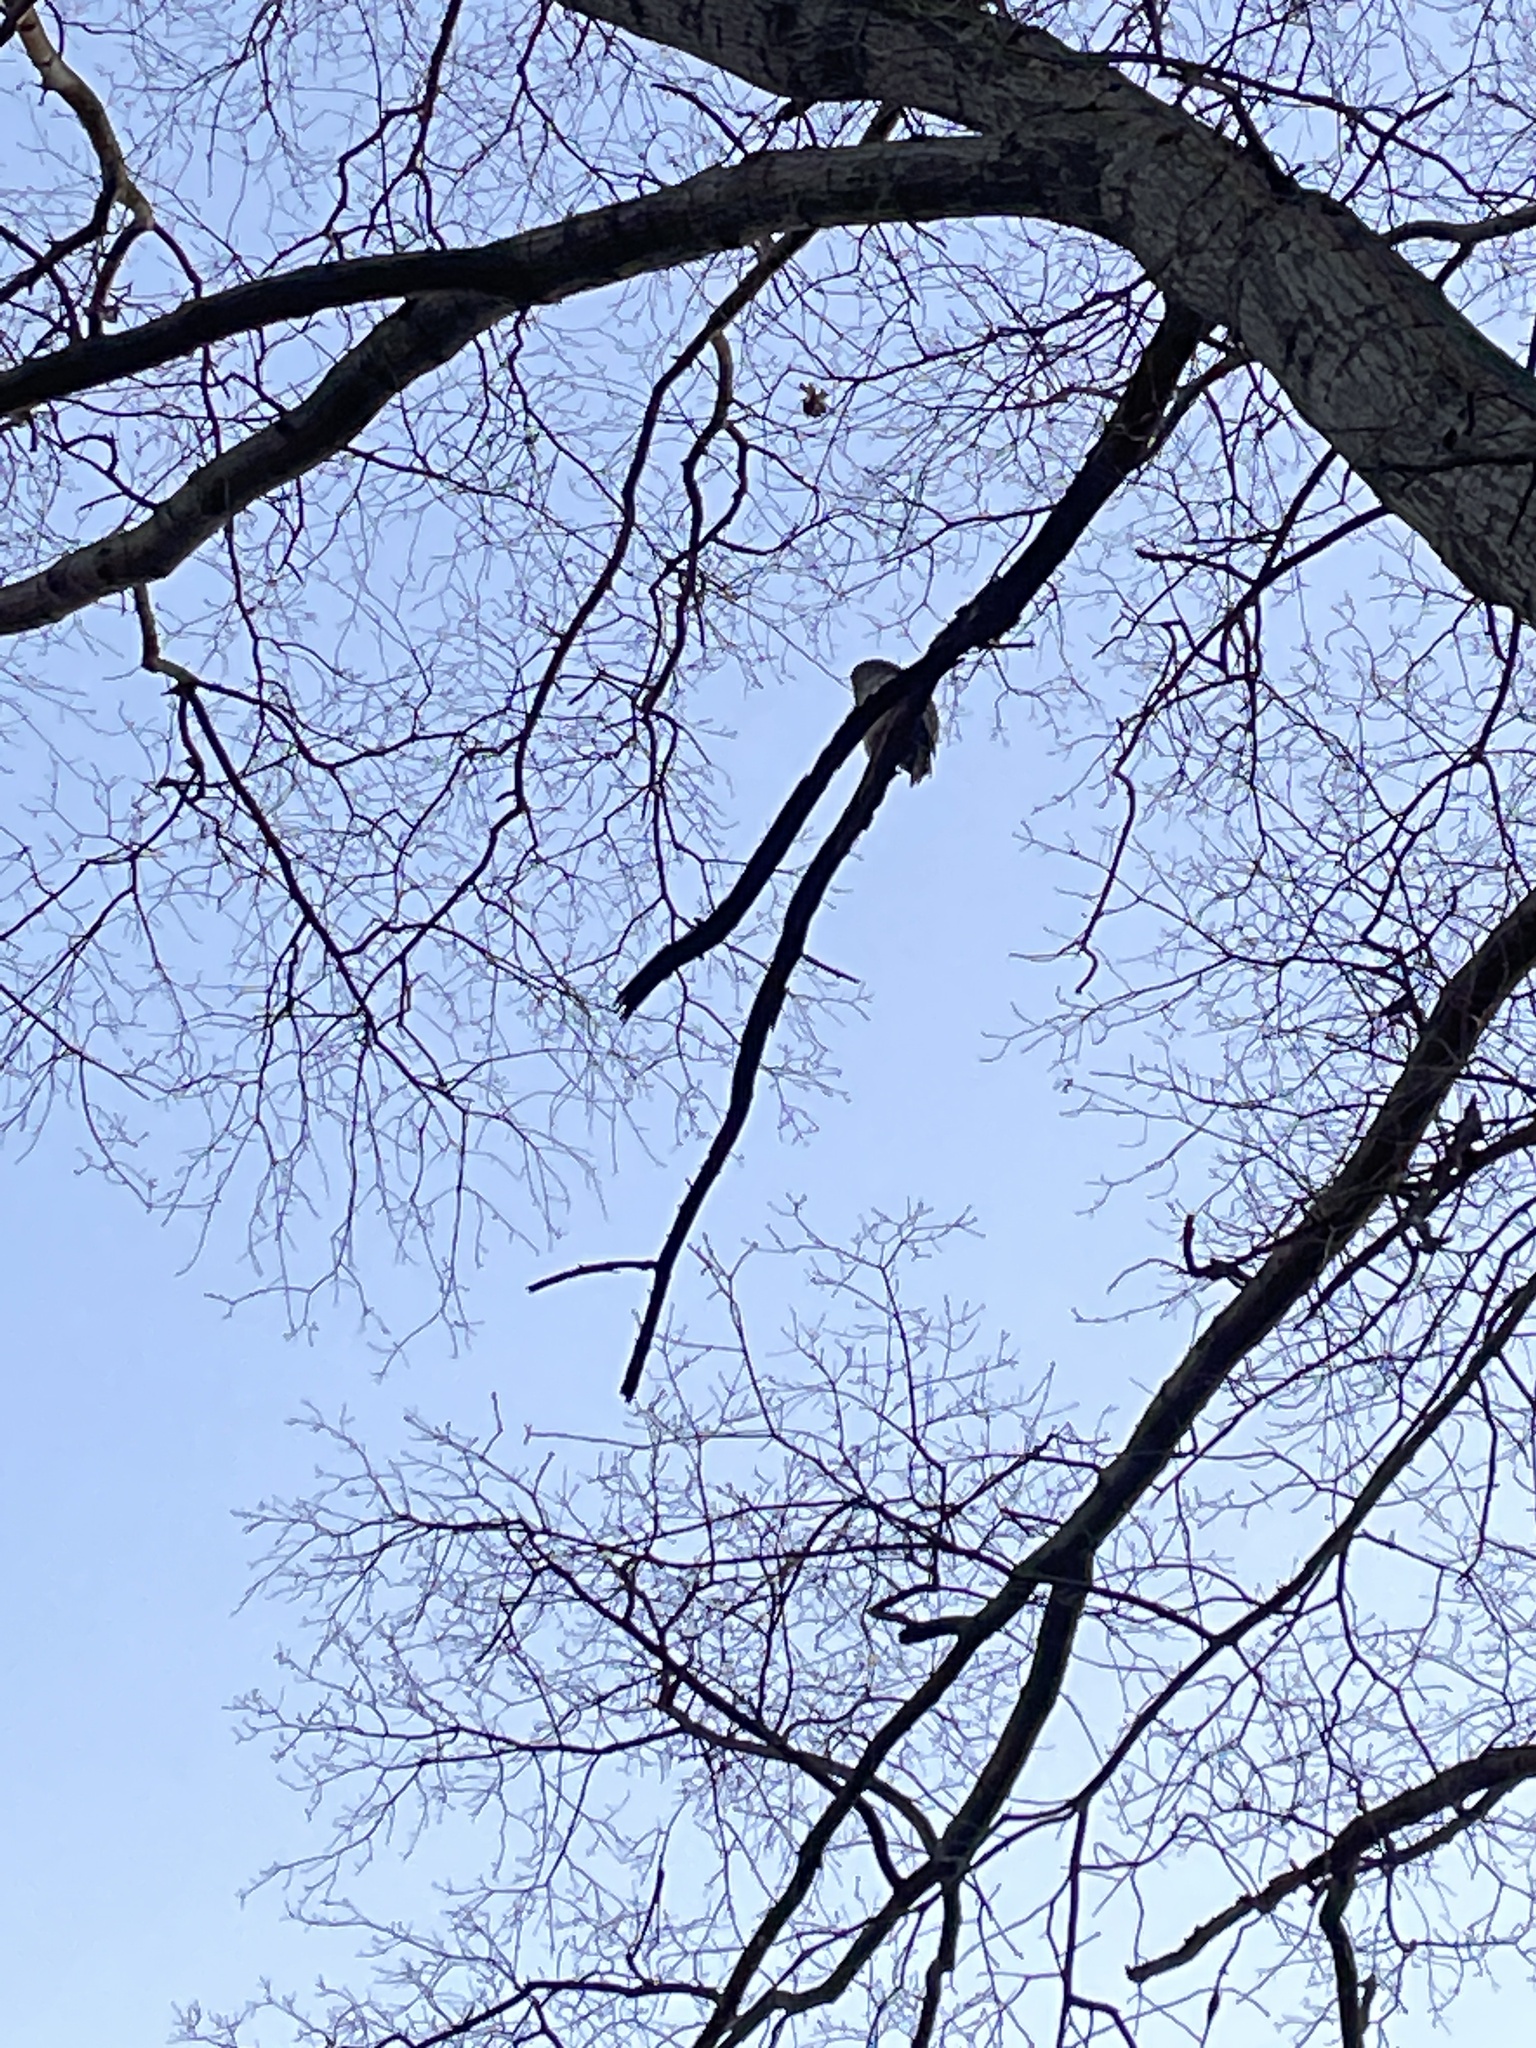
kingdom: Animalia
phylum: Chordata
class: Aves
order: Strigiformes
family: Strigidae
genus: Strix
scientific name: Strix varia
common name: Barred owl
